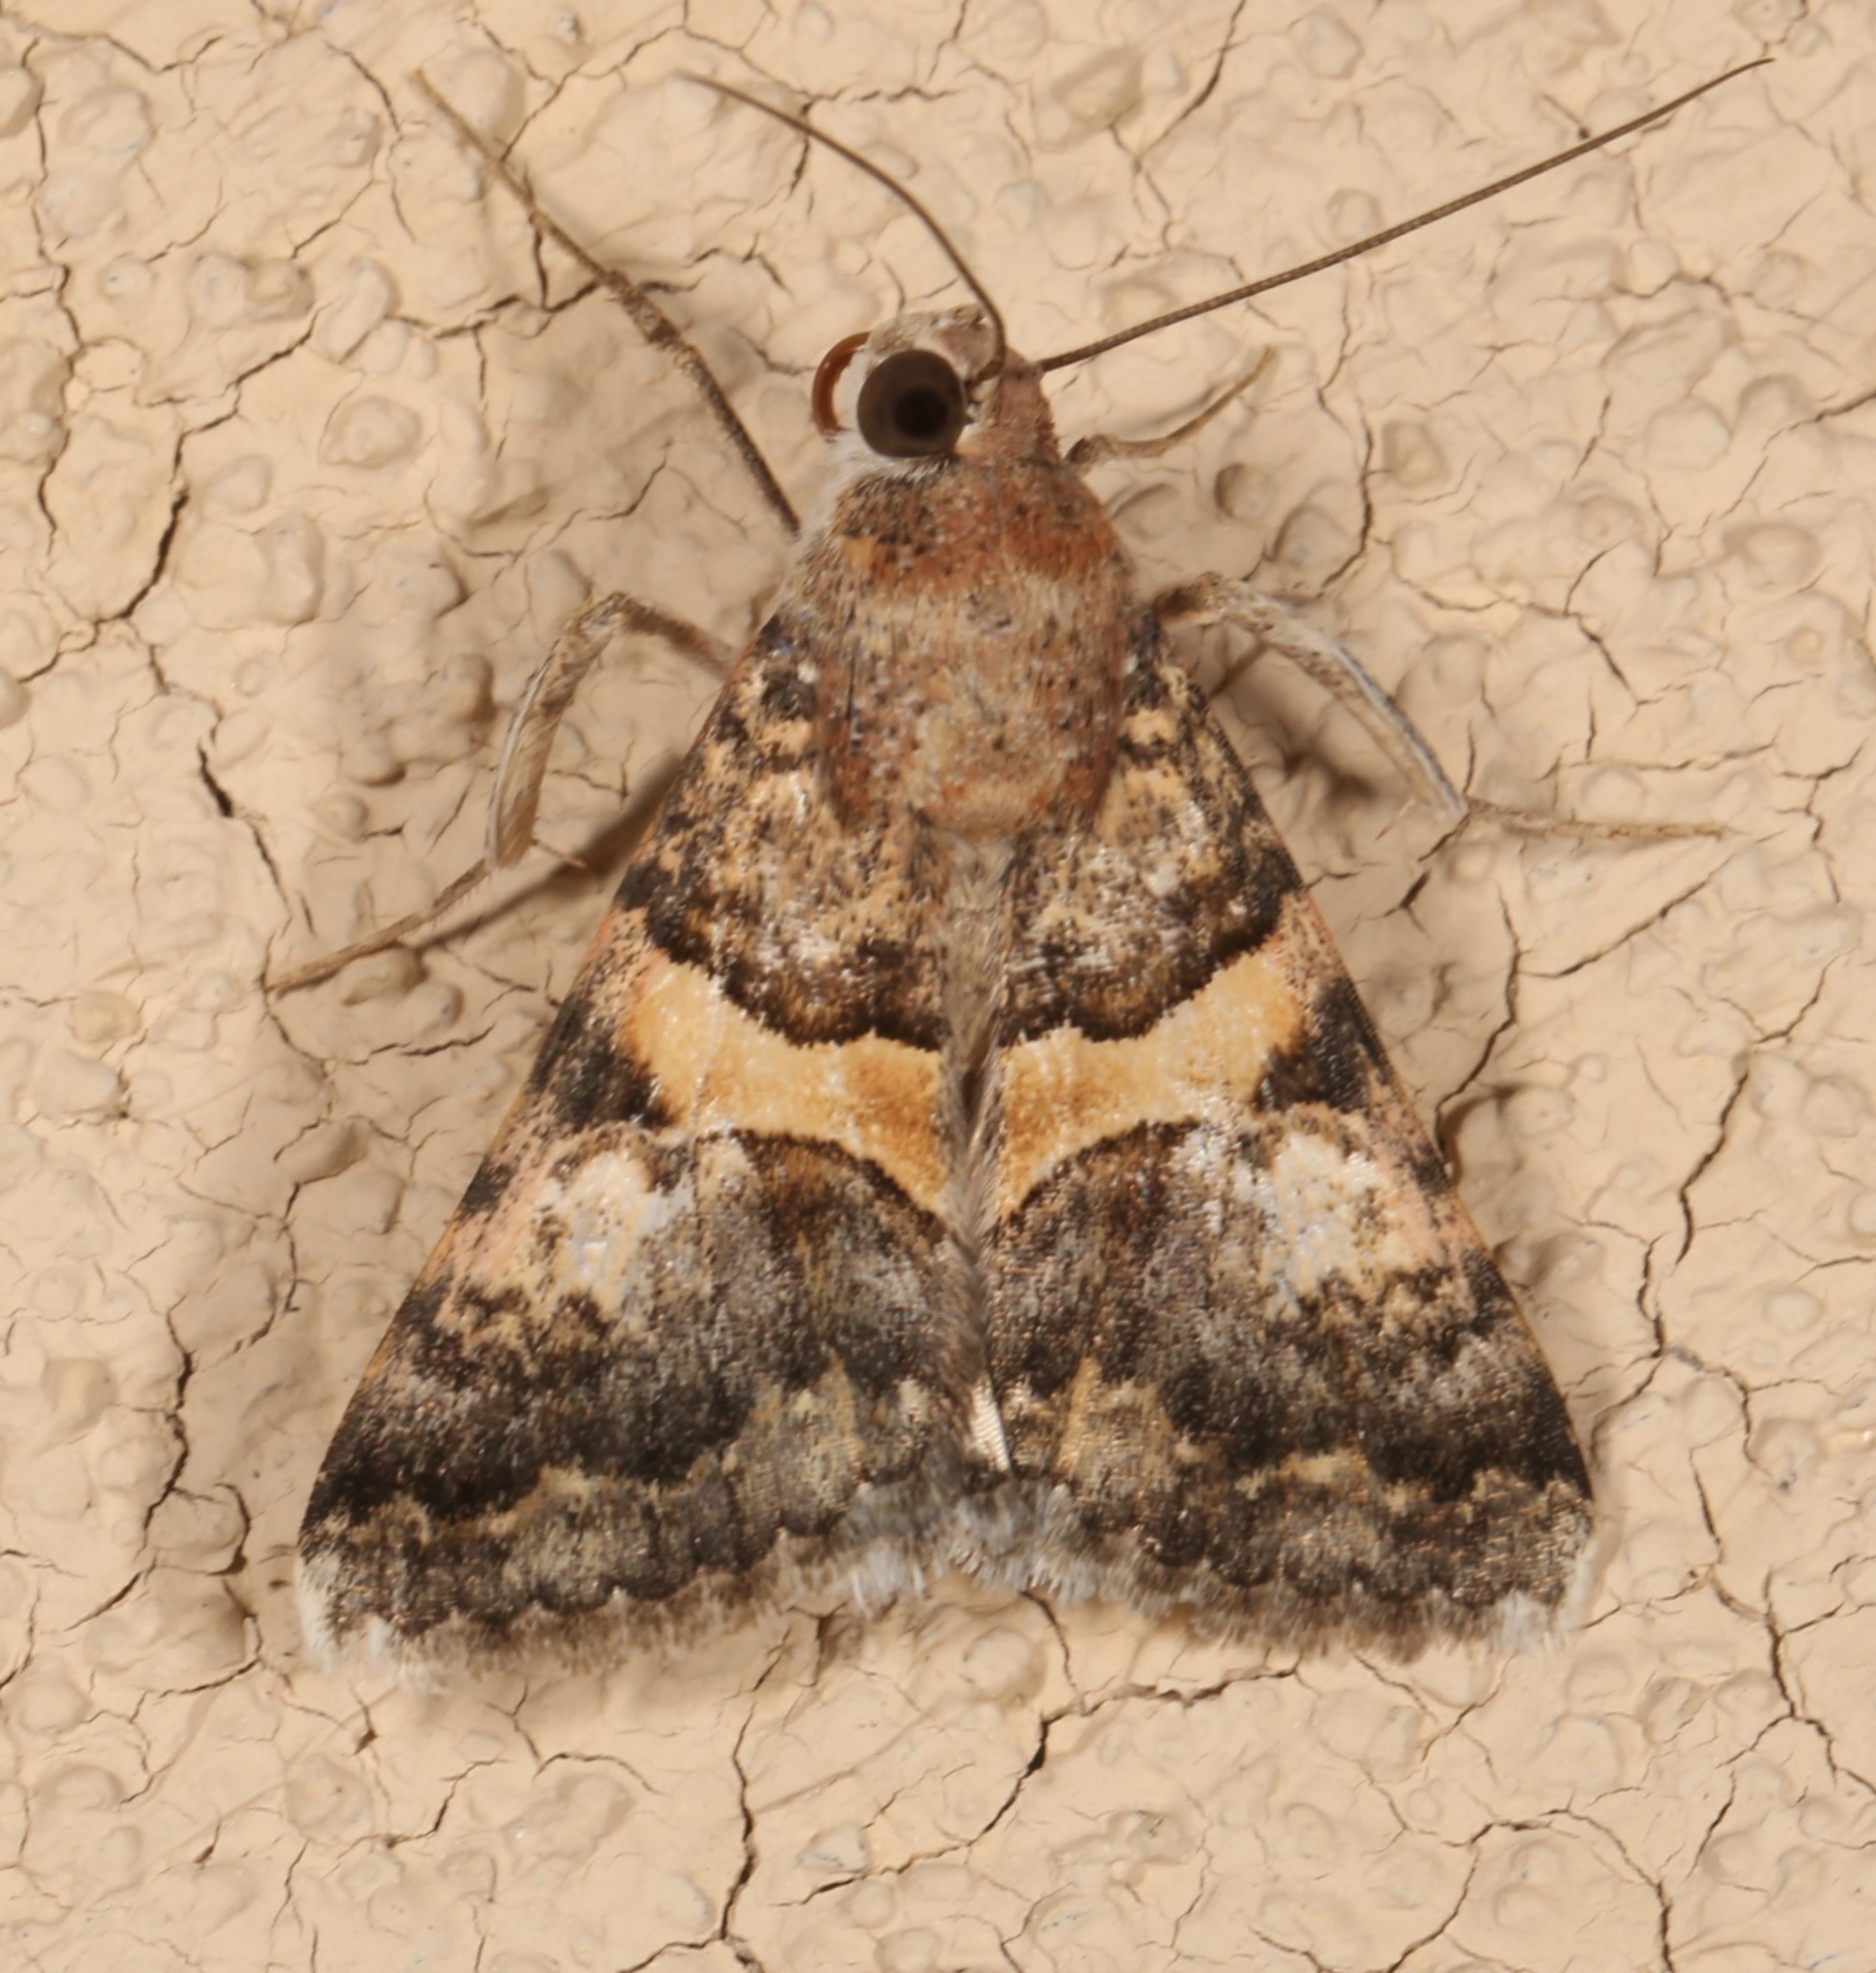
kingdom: Animalia
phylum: Arthropoda
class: Insecta
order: Lepidoptera
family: Erebidae
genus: Melipotis
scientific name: Melipotis jucunda
